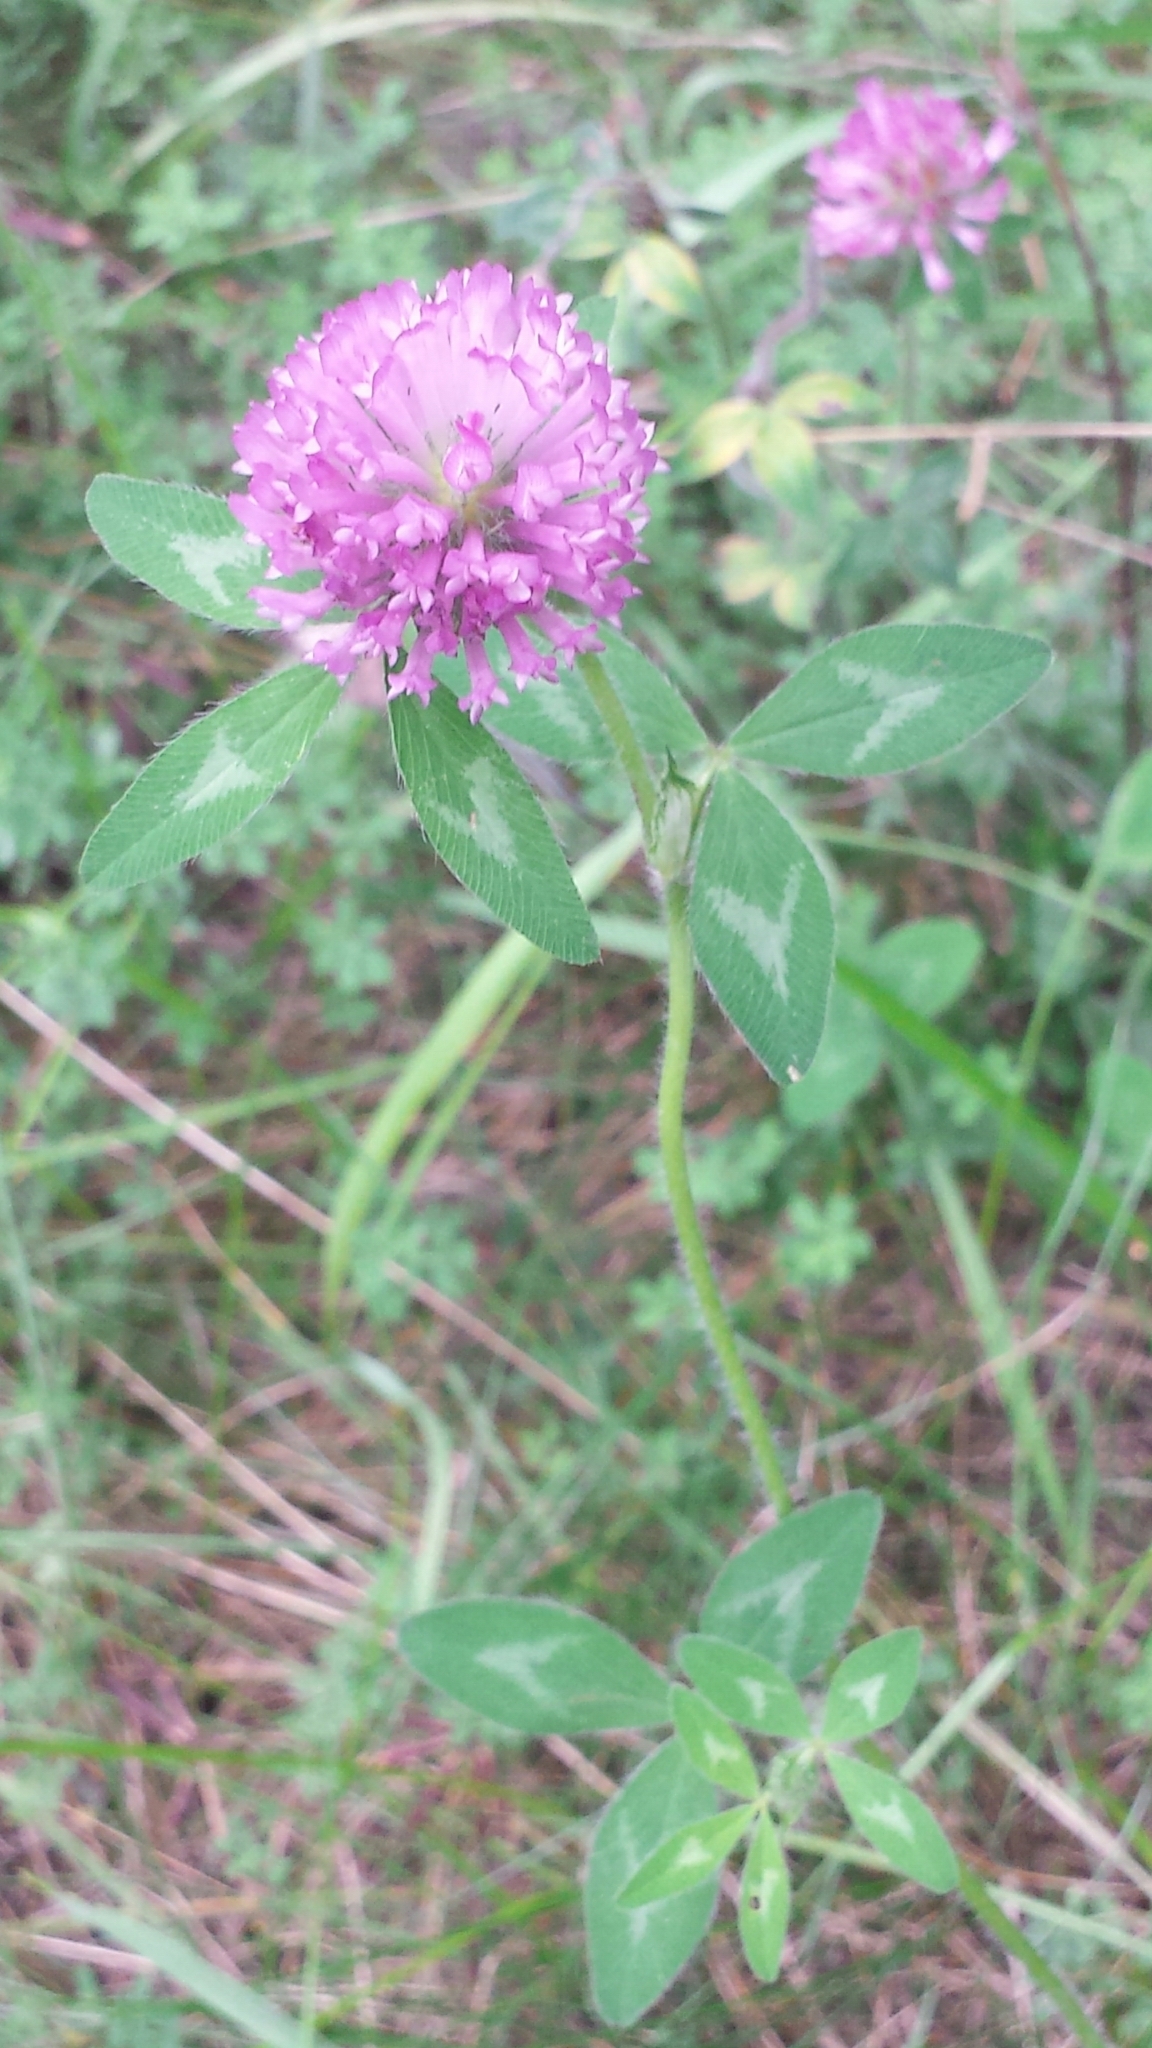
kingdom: Plantae
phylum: Tracheophyta
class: Magnoliopsida
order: Fabales
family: Fabaceae
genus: Trifolium
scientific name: Trifolium pratense
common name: Red clover
